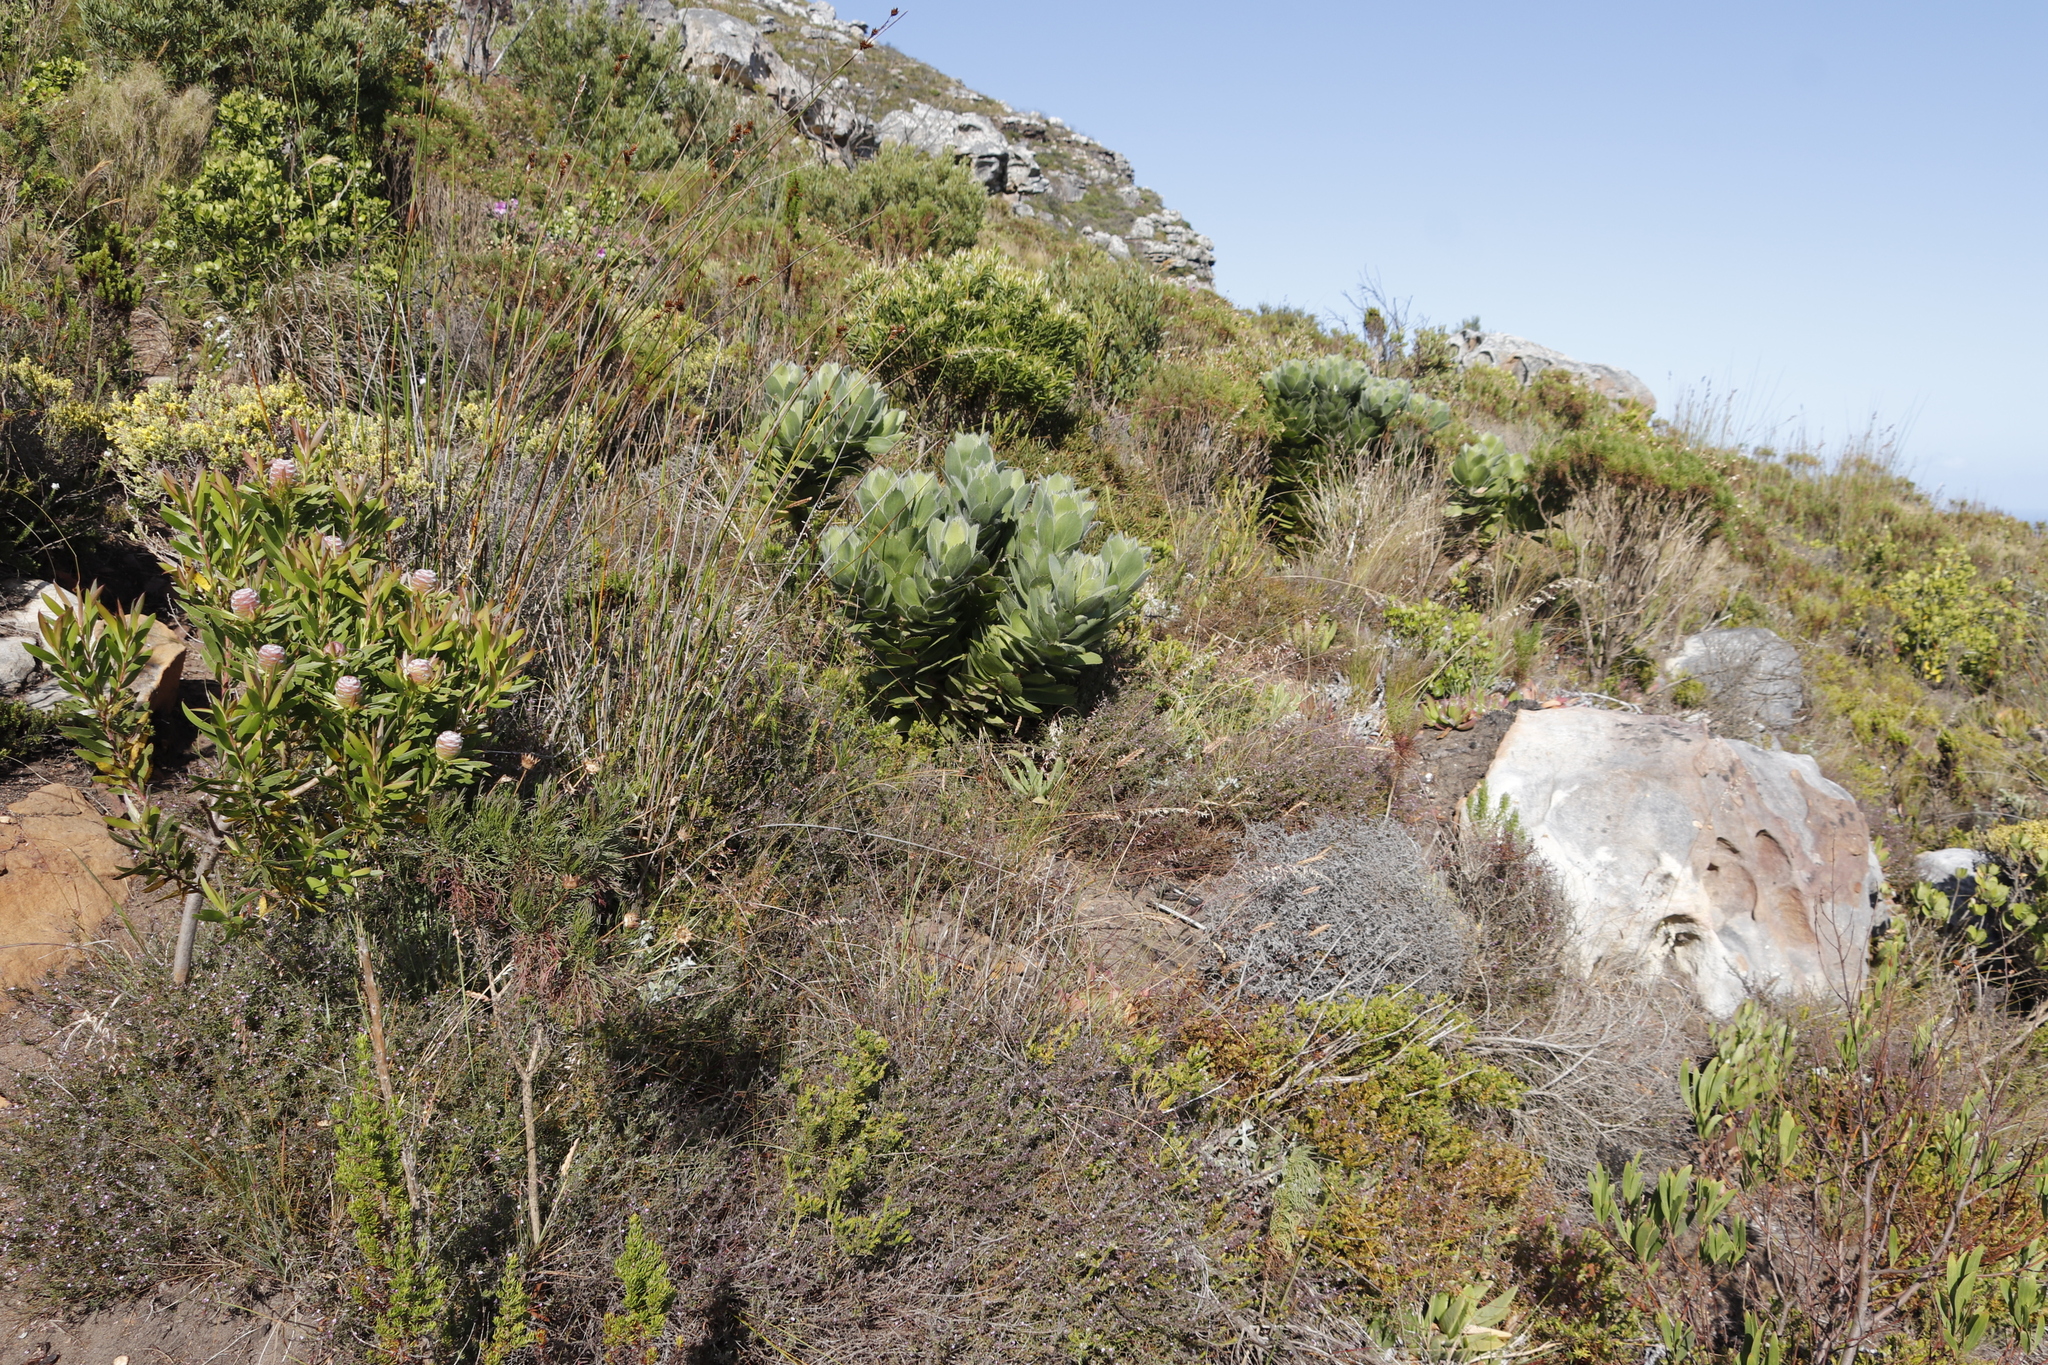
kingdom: Plantae
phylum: Tracheophyta
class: Magnoliopsida
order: Proteales
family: Proteaceae
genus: Leucospermum
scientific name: Leucospermum conocarpodendron
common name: Tree pincushion
